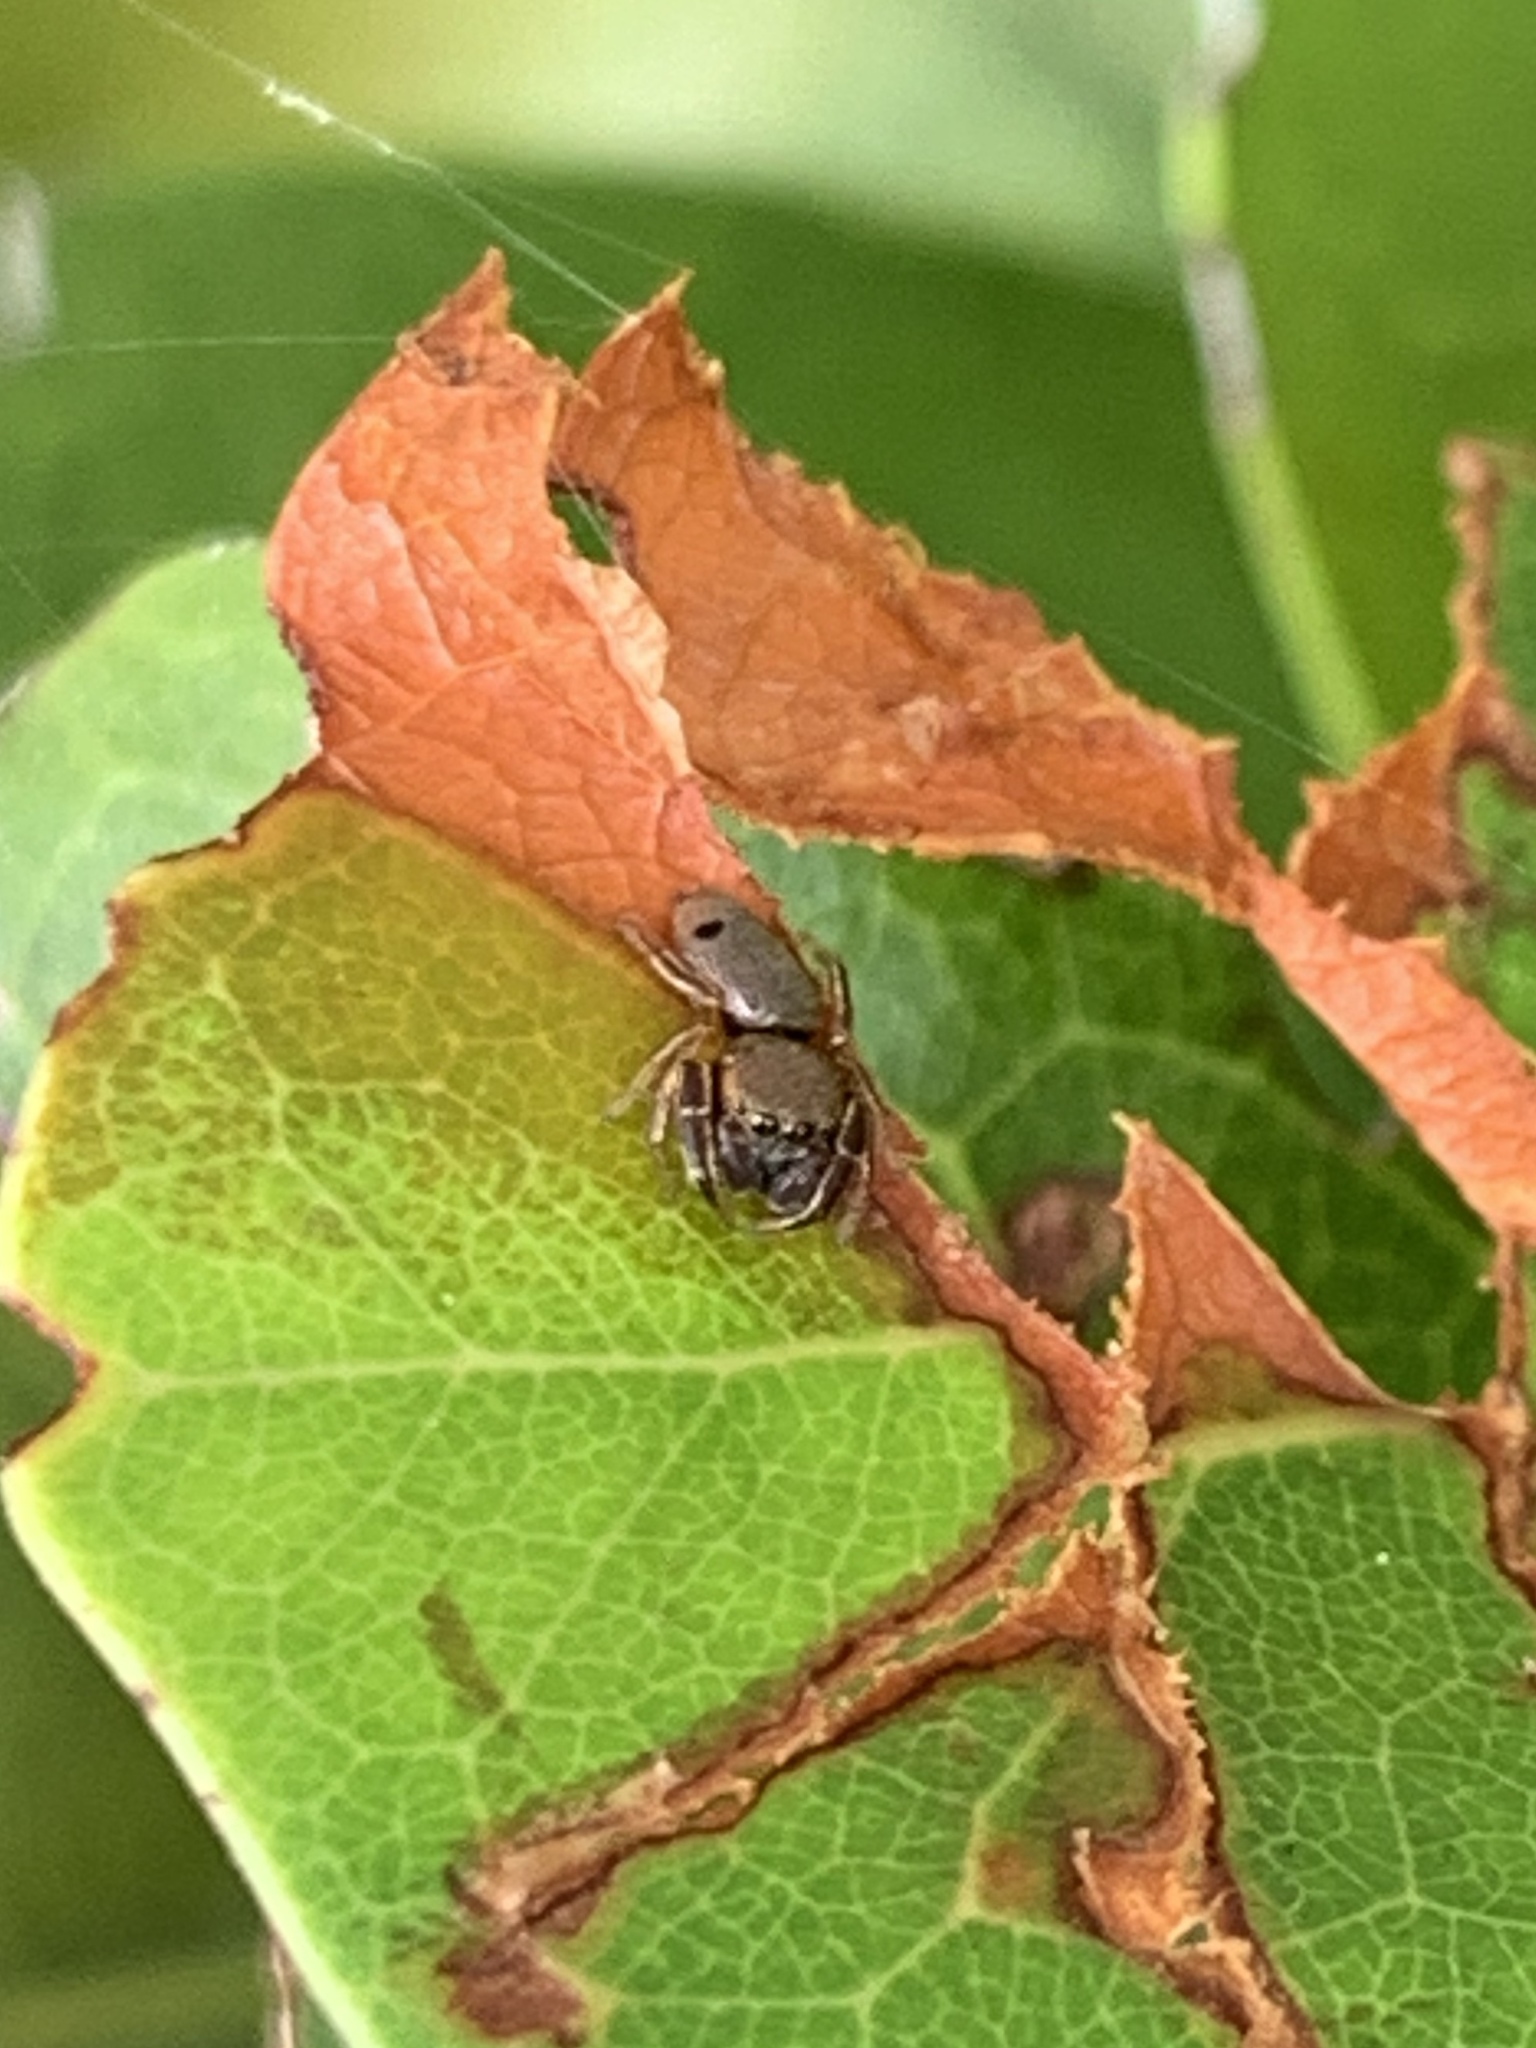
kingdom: Animalia
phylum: Arthropoda
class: Arachnida
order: Araneae
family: Salticidae
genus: Beata
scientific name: Beata wickhami
